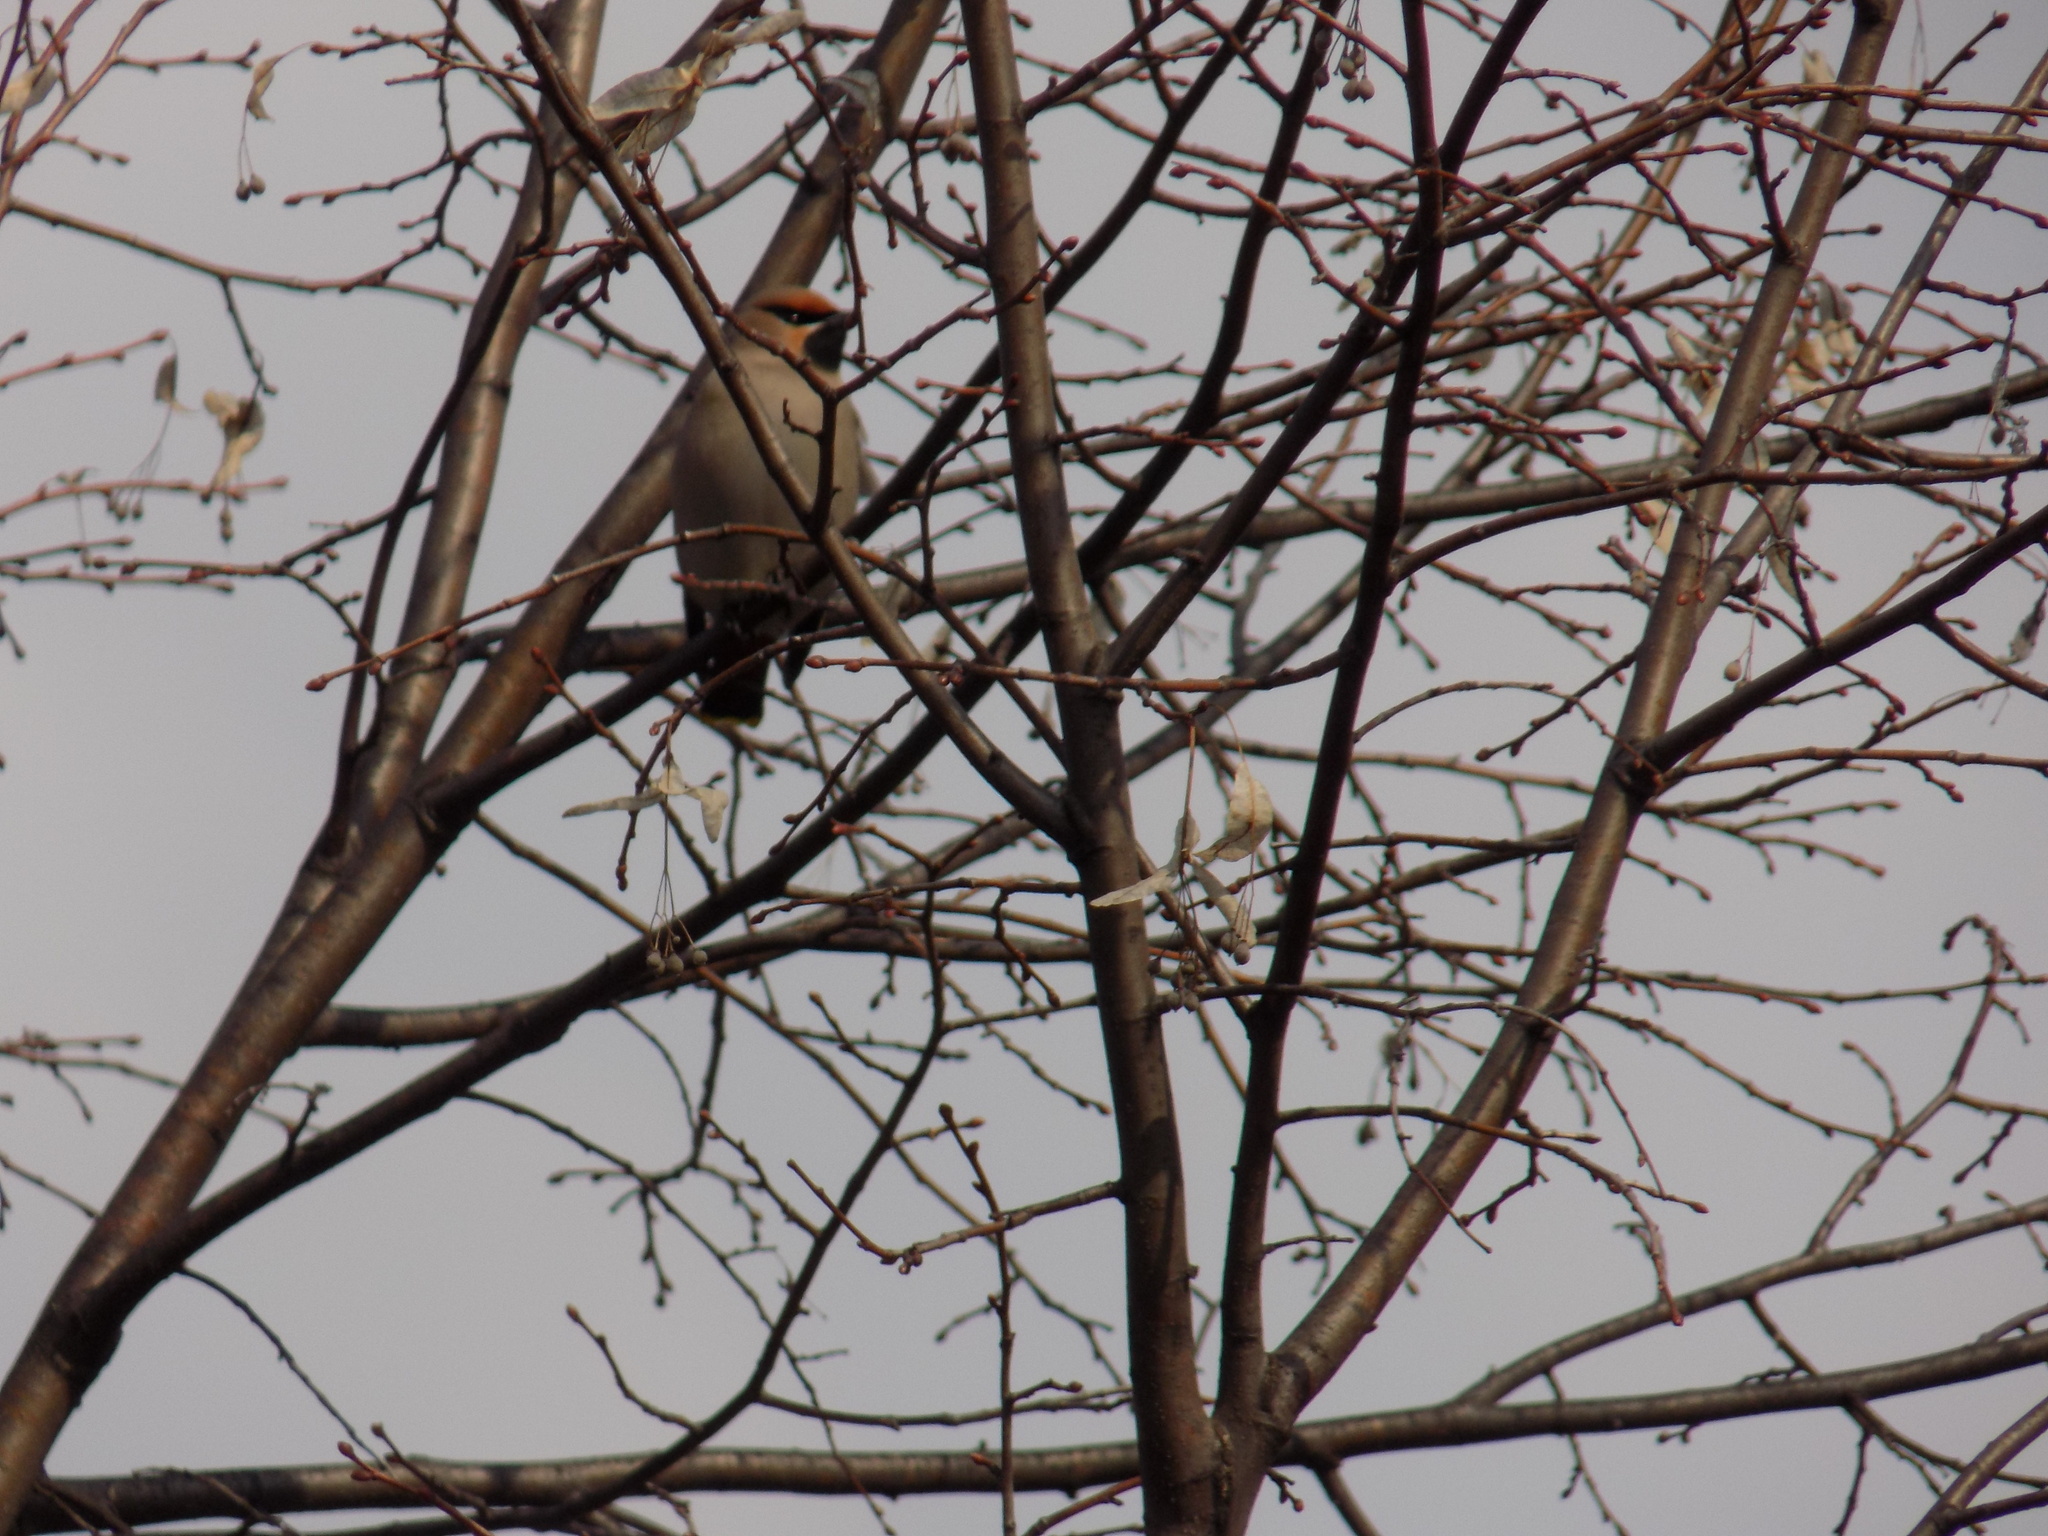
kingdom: Animalia
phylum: Chordata
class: Aves
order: Passeriformes
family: Bombycillidae
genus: Bombycilla
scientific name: Bombycilla garrulus
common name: Bohemian waxwing
